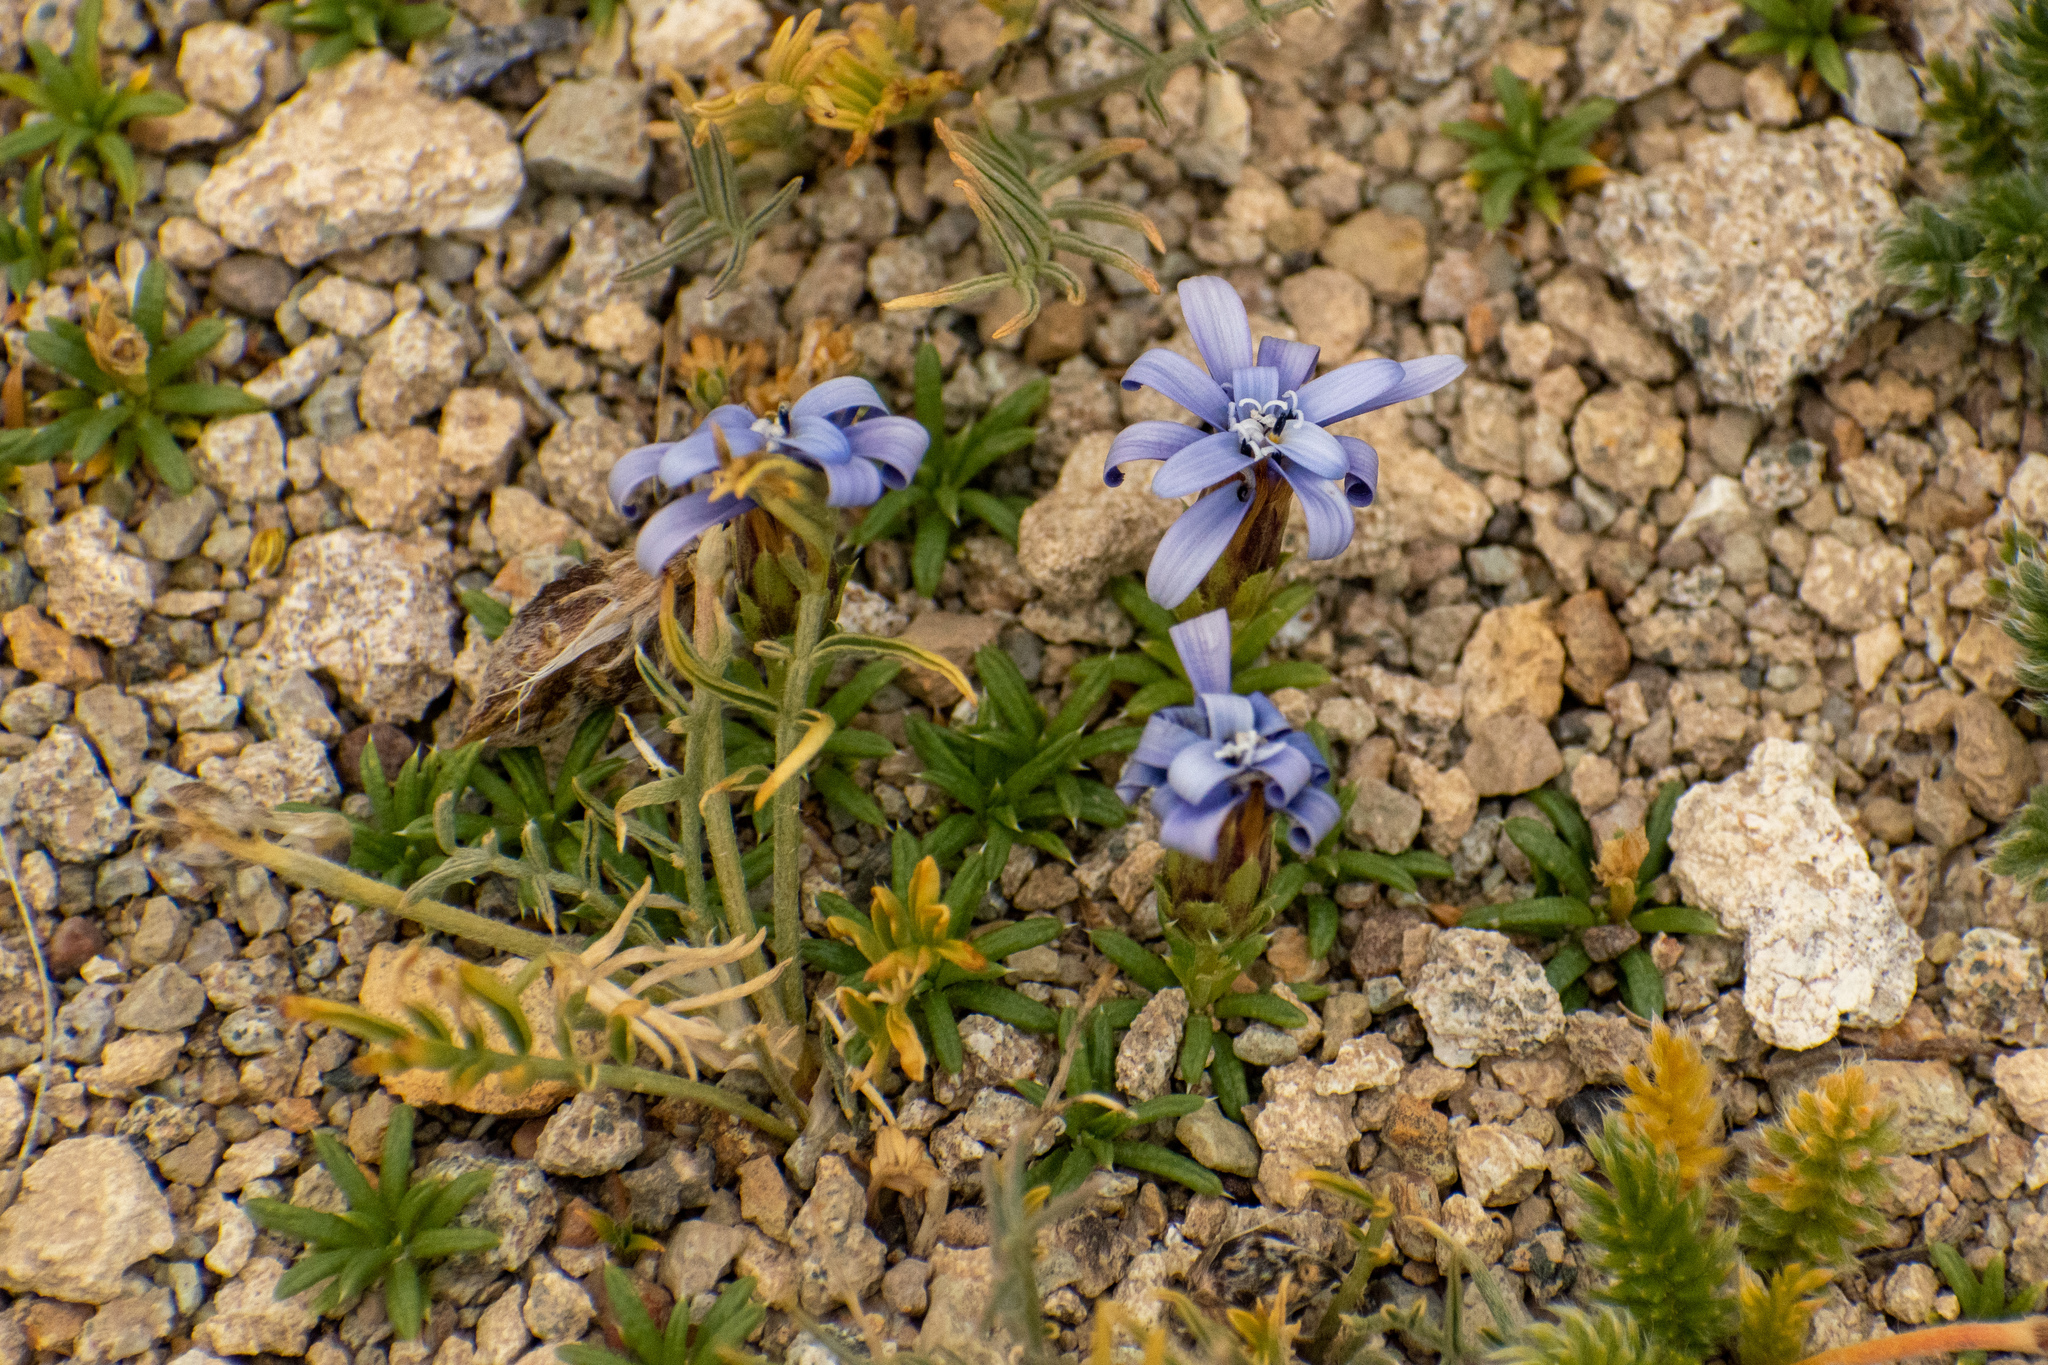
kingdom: Plantae
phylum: Tracheophyta
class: Magnoliopsida
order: Asterales
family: Asteraceae
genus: Perezia
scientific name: Perezia recurvata
